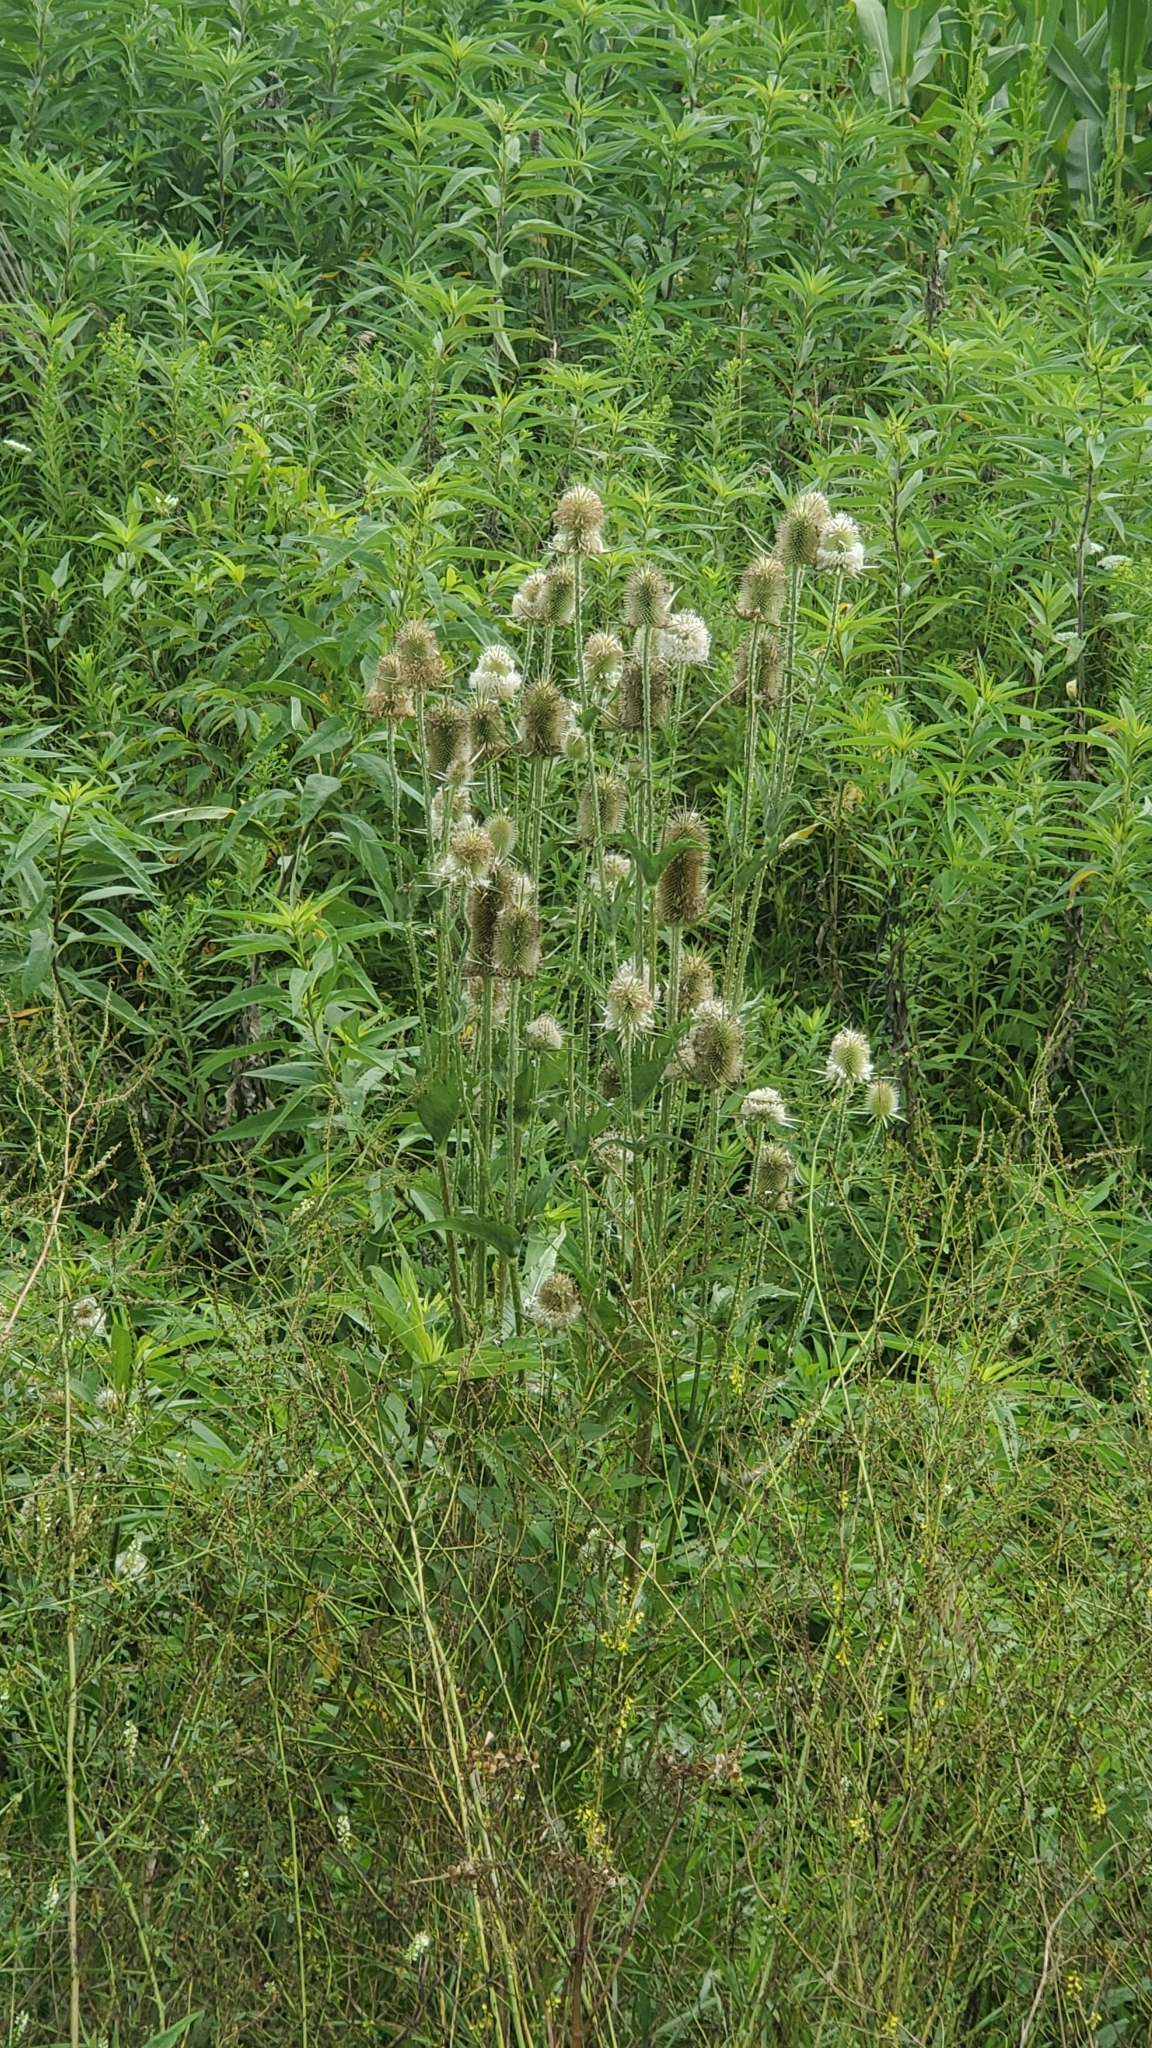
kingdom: Plantae
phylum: Tracheophyta
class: Magnoliopsida
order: Dipsacales
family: Caprifoliaceae
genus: Dipsacus
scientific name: Dipsacus laciniatus
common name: Cut-leaved teasel
